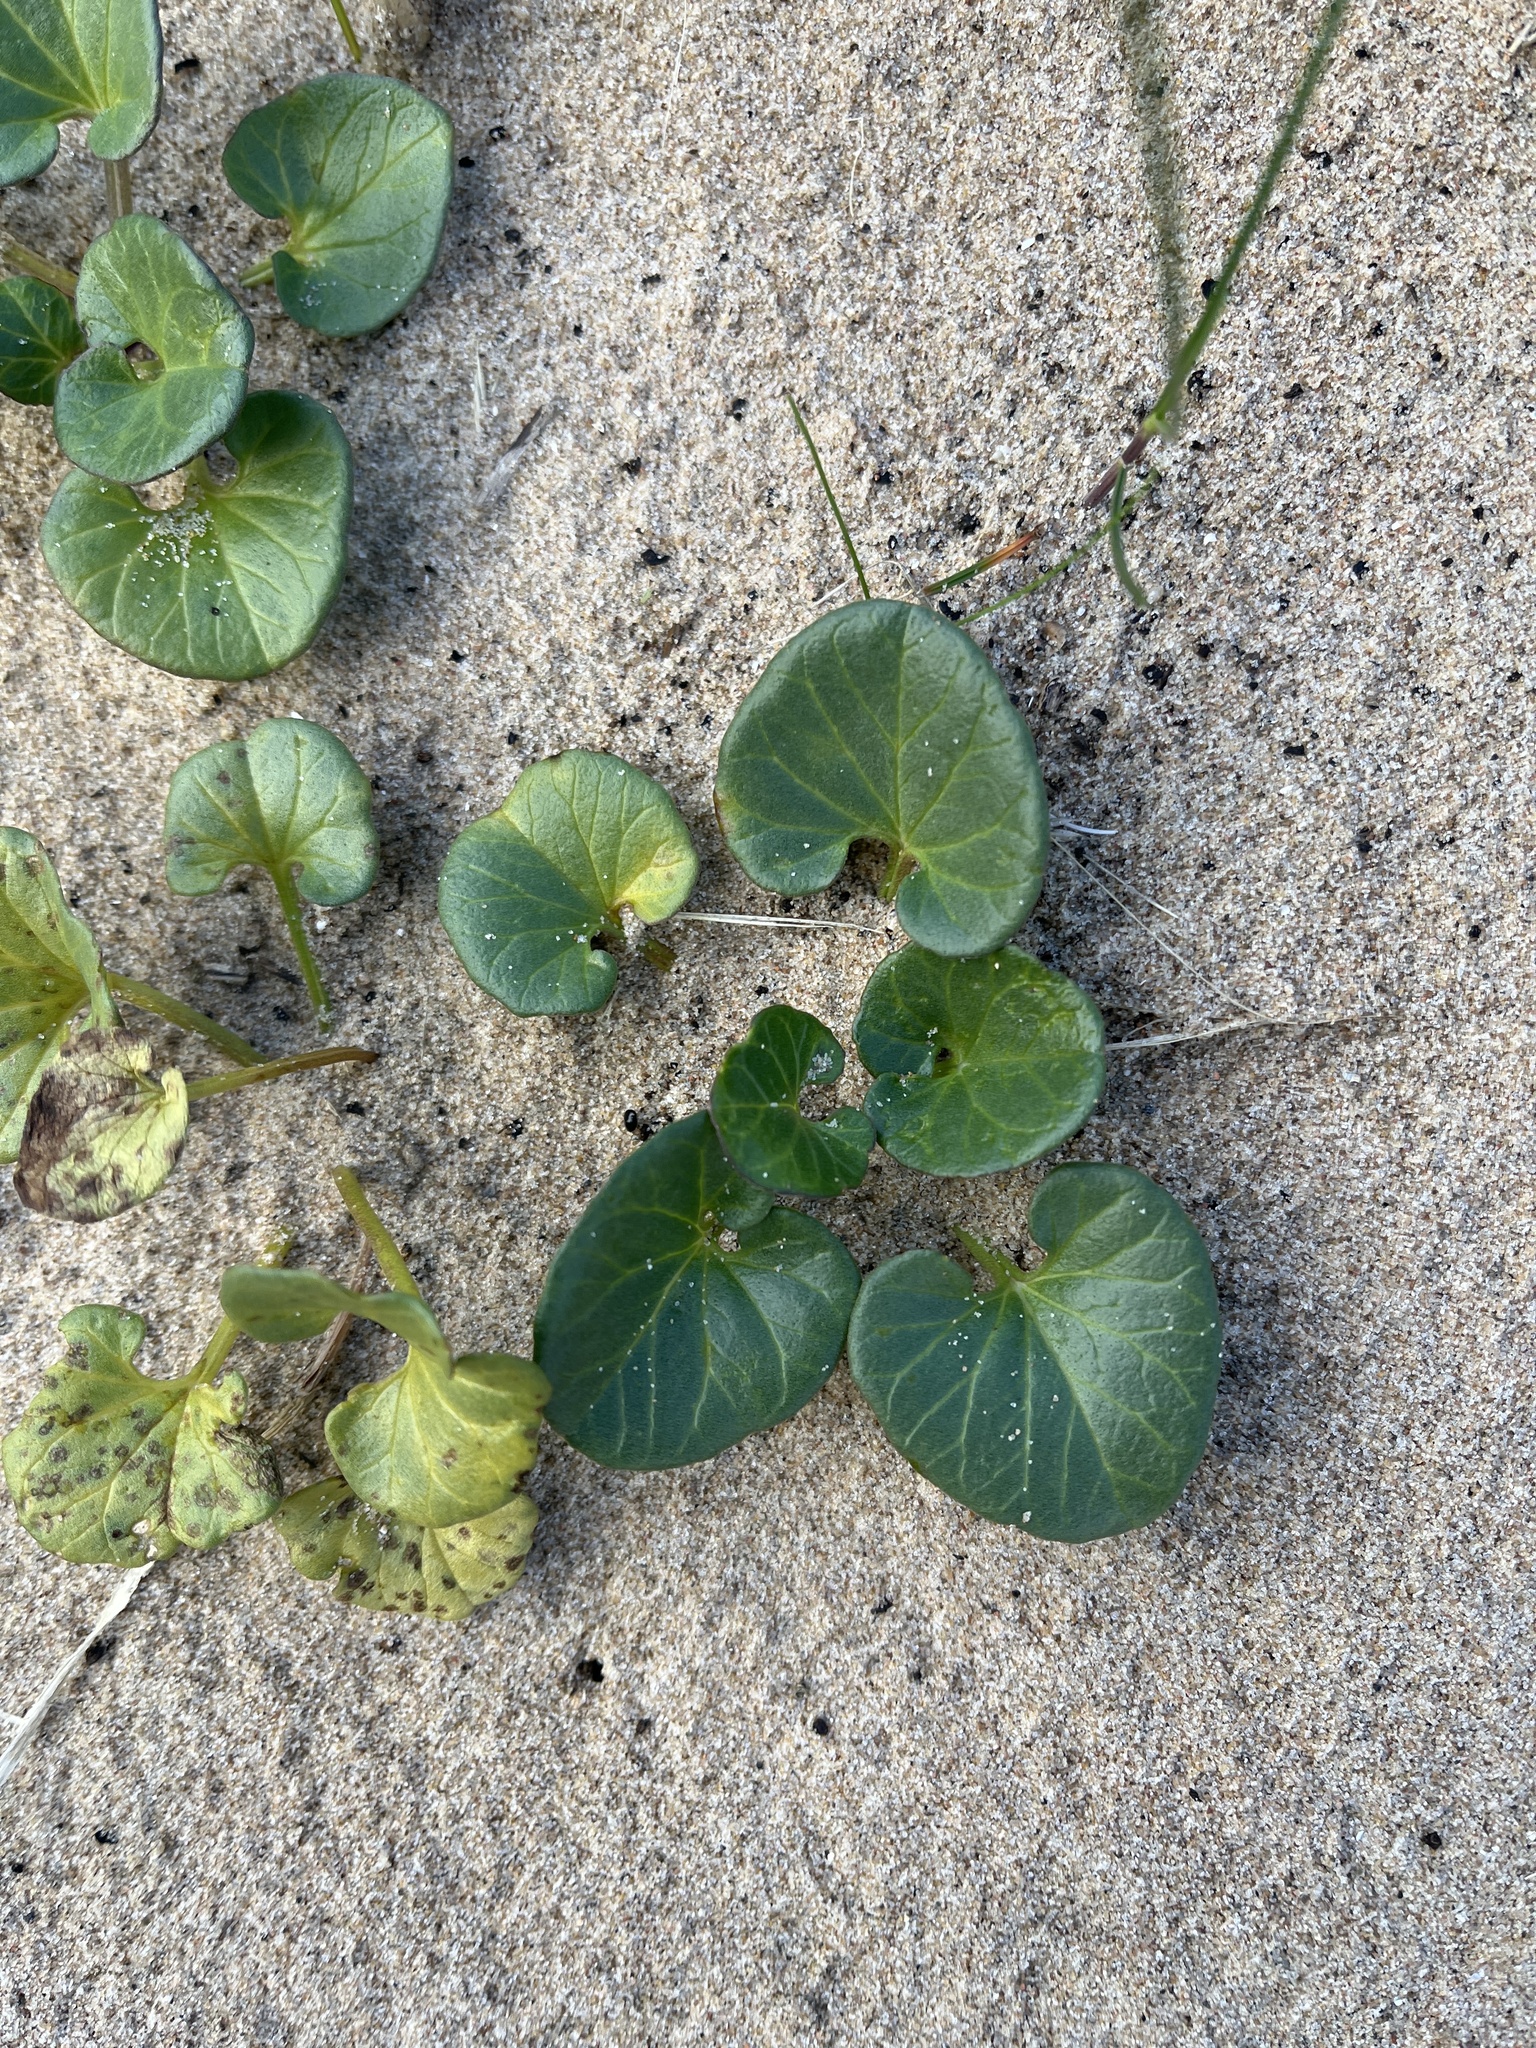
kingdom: Plantae
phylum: Tracheophyta
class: Magnoliopsida
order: Solanales
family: Convolvulaceae
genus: Calystegia
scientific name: Calystegia soldanella
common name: Sea bindweed
